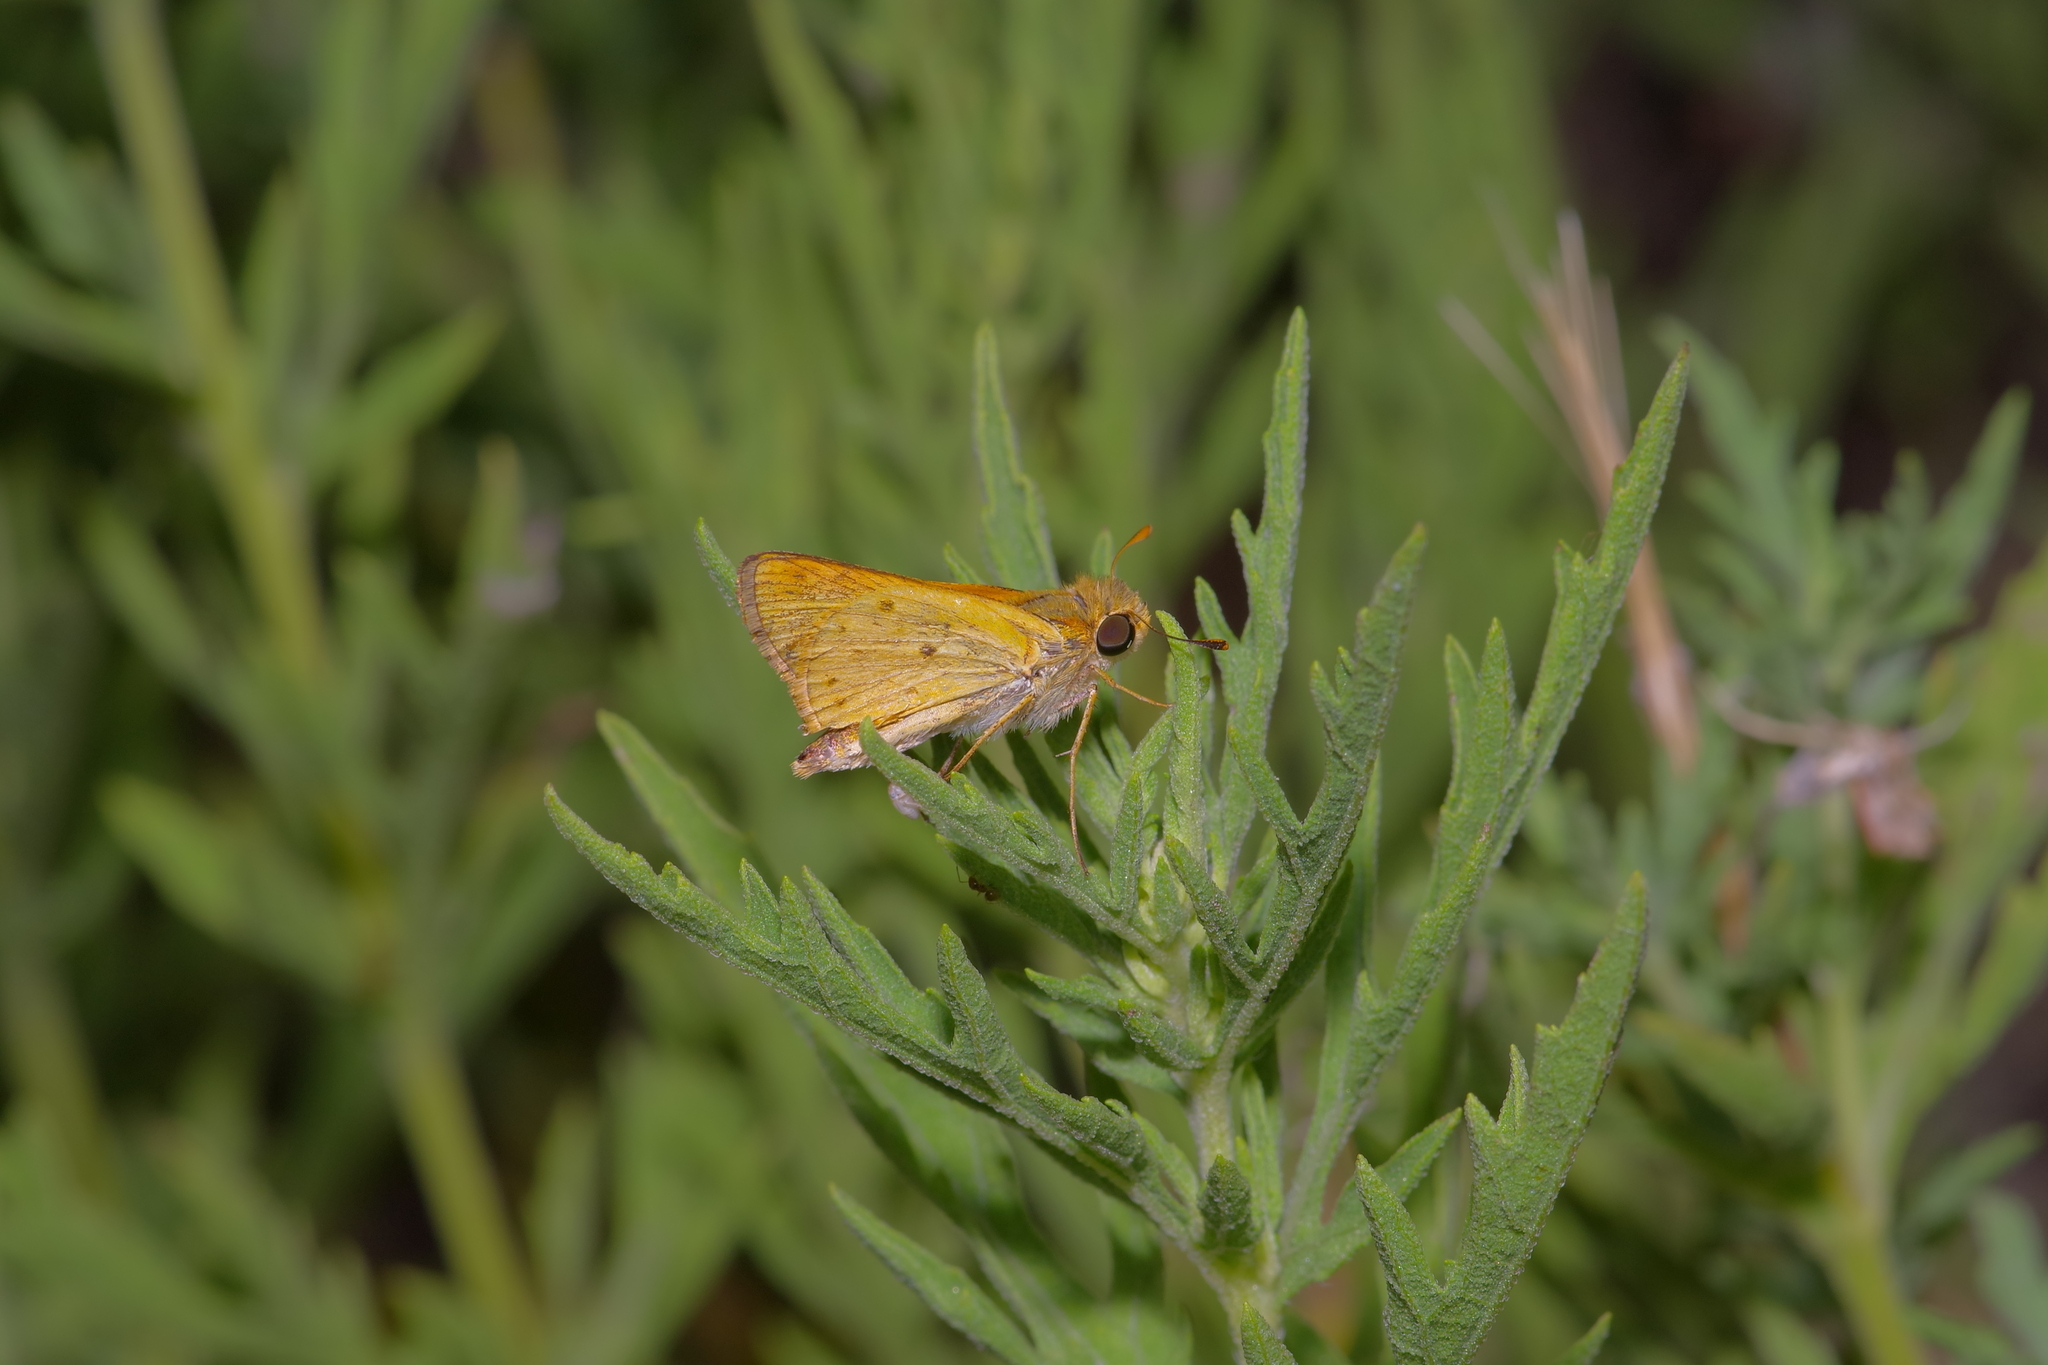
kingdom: Animalia
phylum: Arthropoda
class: Insecta
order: Lepidoptera
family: Hesperiidae
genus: Hylephila
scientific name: Hylephila phyleus
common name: Fiery skipper
